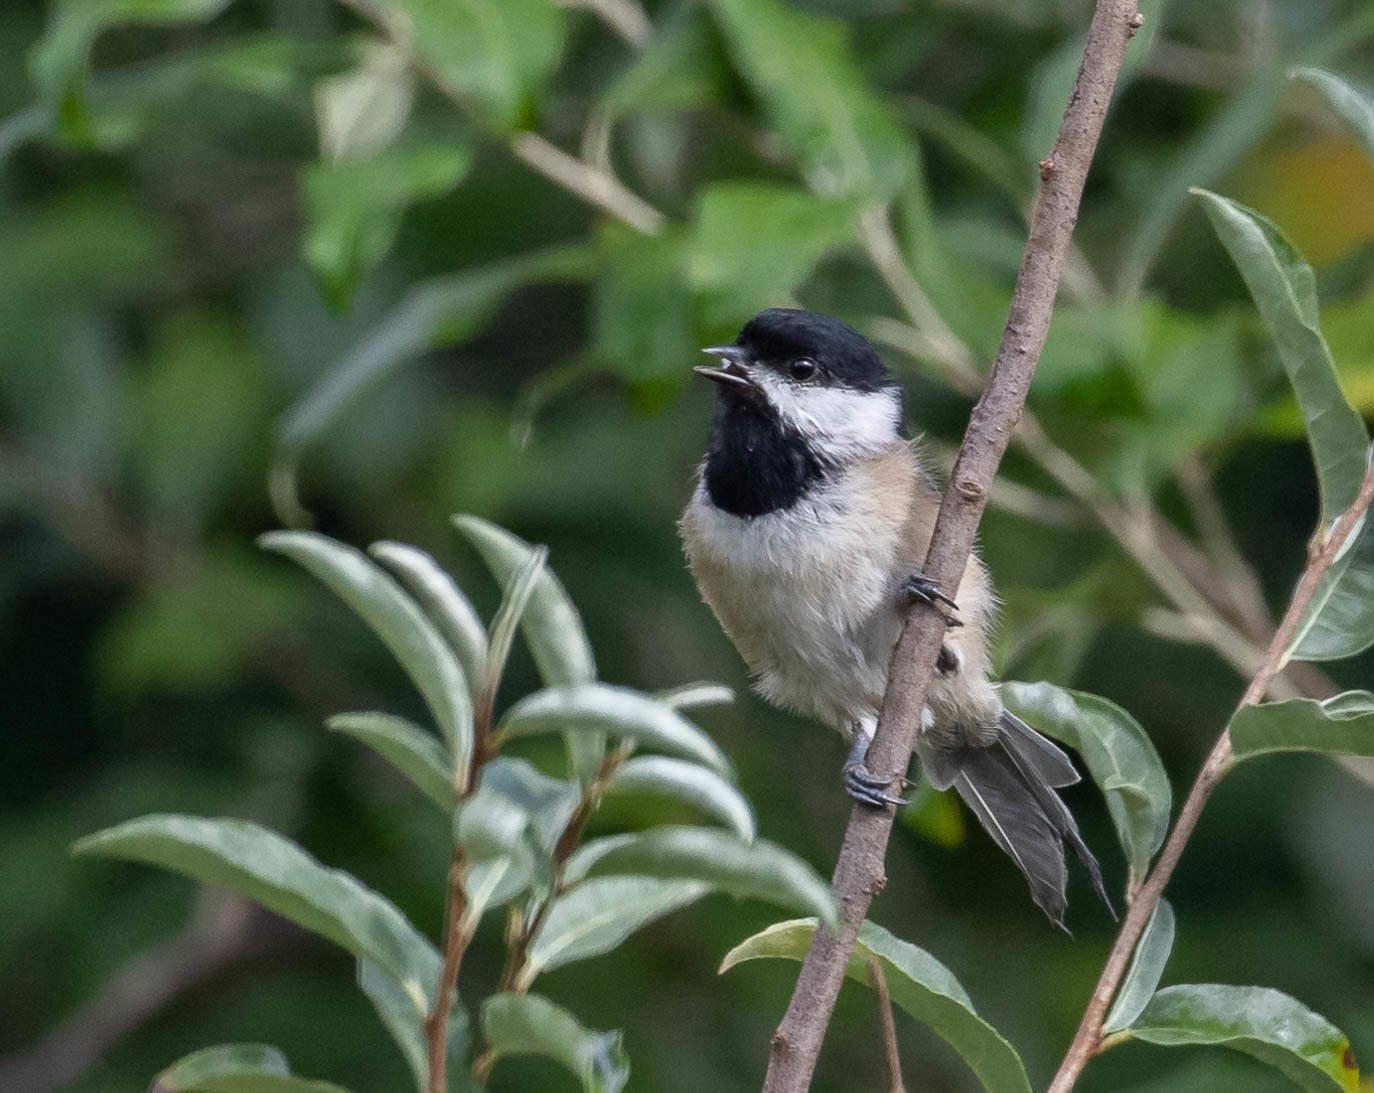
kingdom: Animalia
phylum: Chordata
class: Aves
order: Passeriformes
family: Paridae
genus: Poecile
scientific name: Poecile atricapillus
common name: Black-capped chickadee
